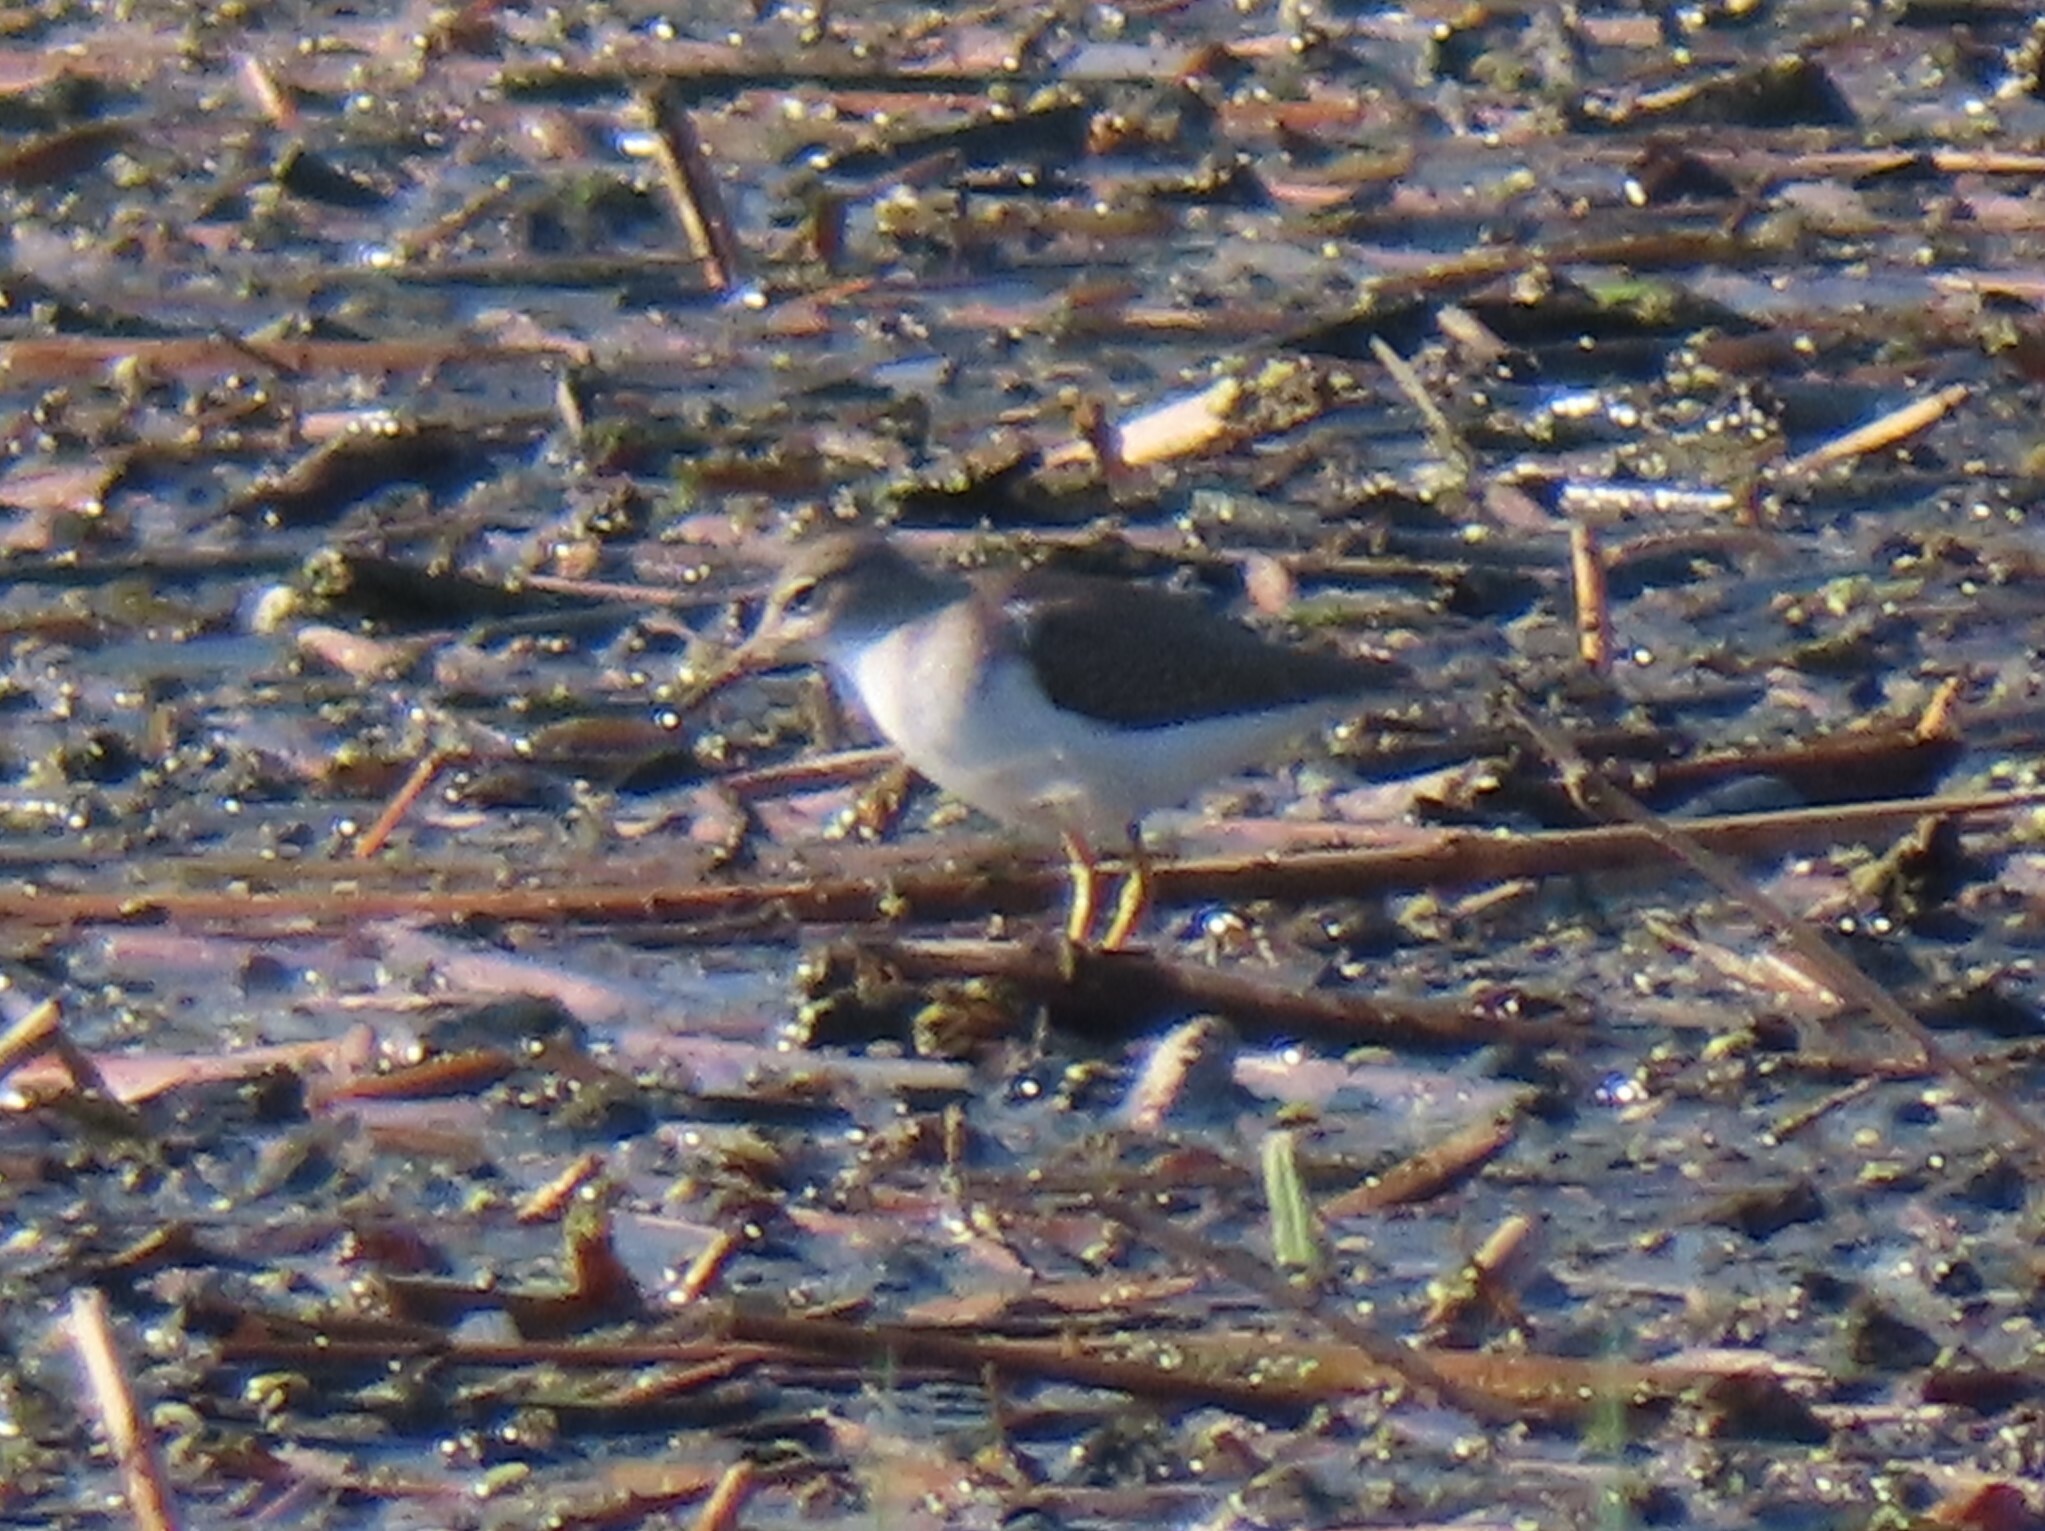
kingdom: Animalia
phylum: Chordata
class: Aves
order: Charadriiformes
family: Scolopacidae
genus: Actitis
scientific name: Actitis macularius
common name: Spotted sandpiper
